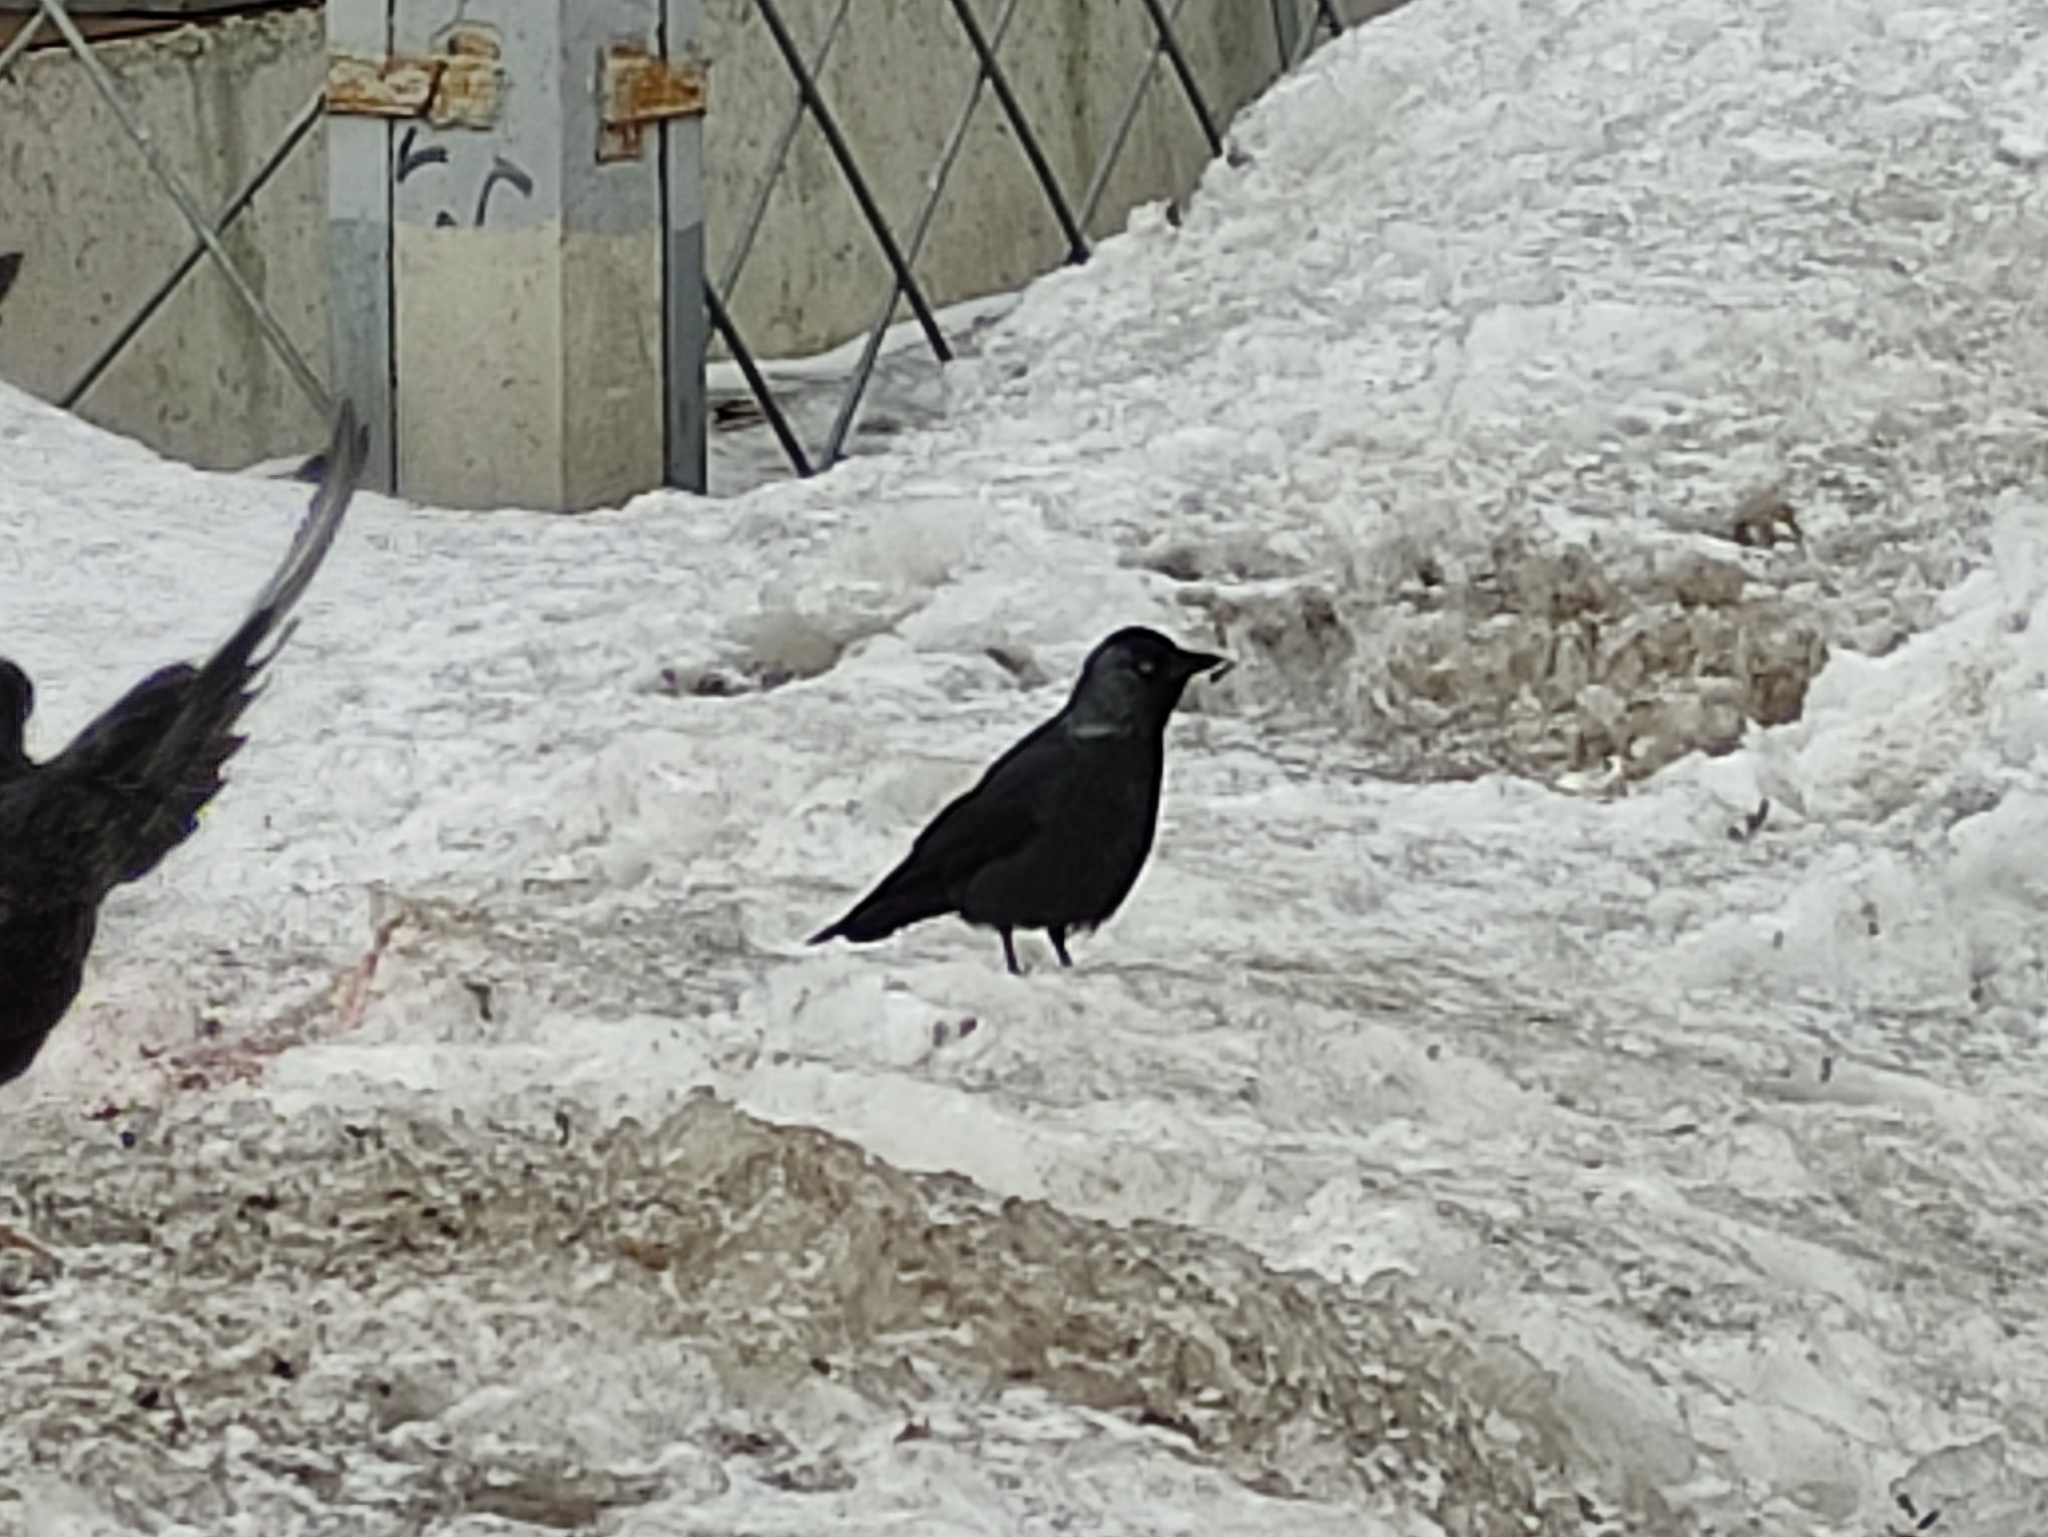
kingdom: Animalia
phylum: Chordata
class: Aves
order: Passeriformes
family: Corvidae
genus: Coloeus
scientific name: Coloeus monedula
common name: Western jackdaw
